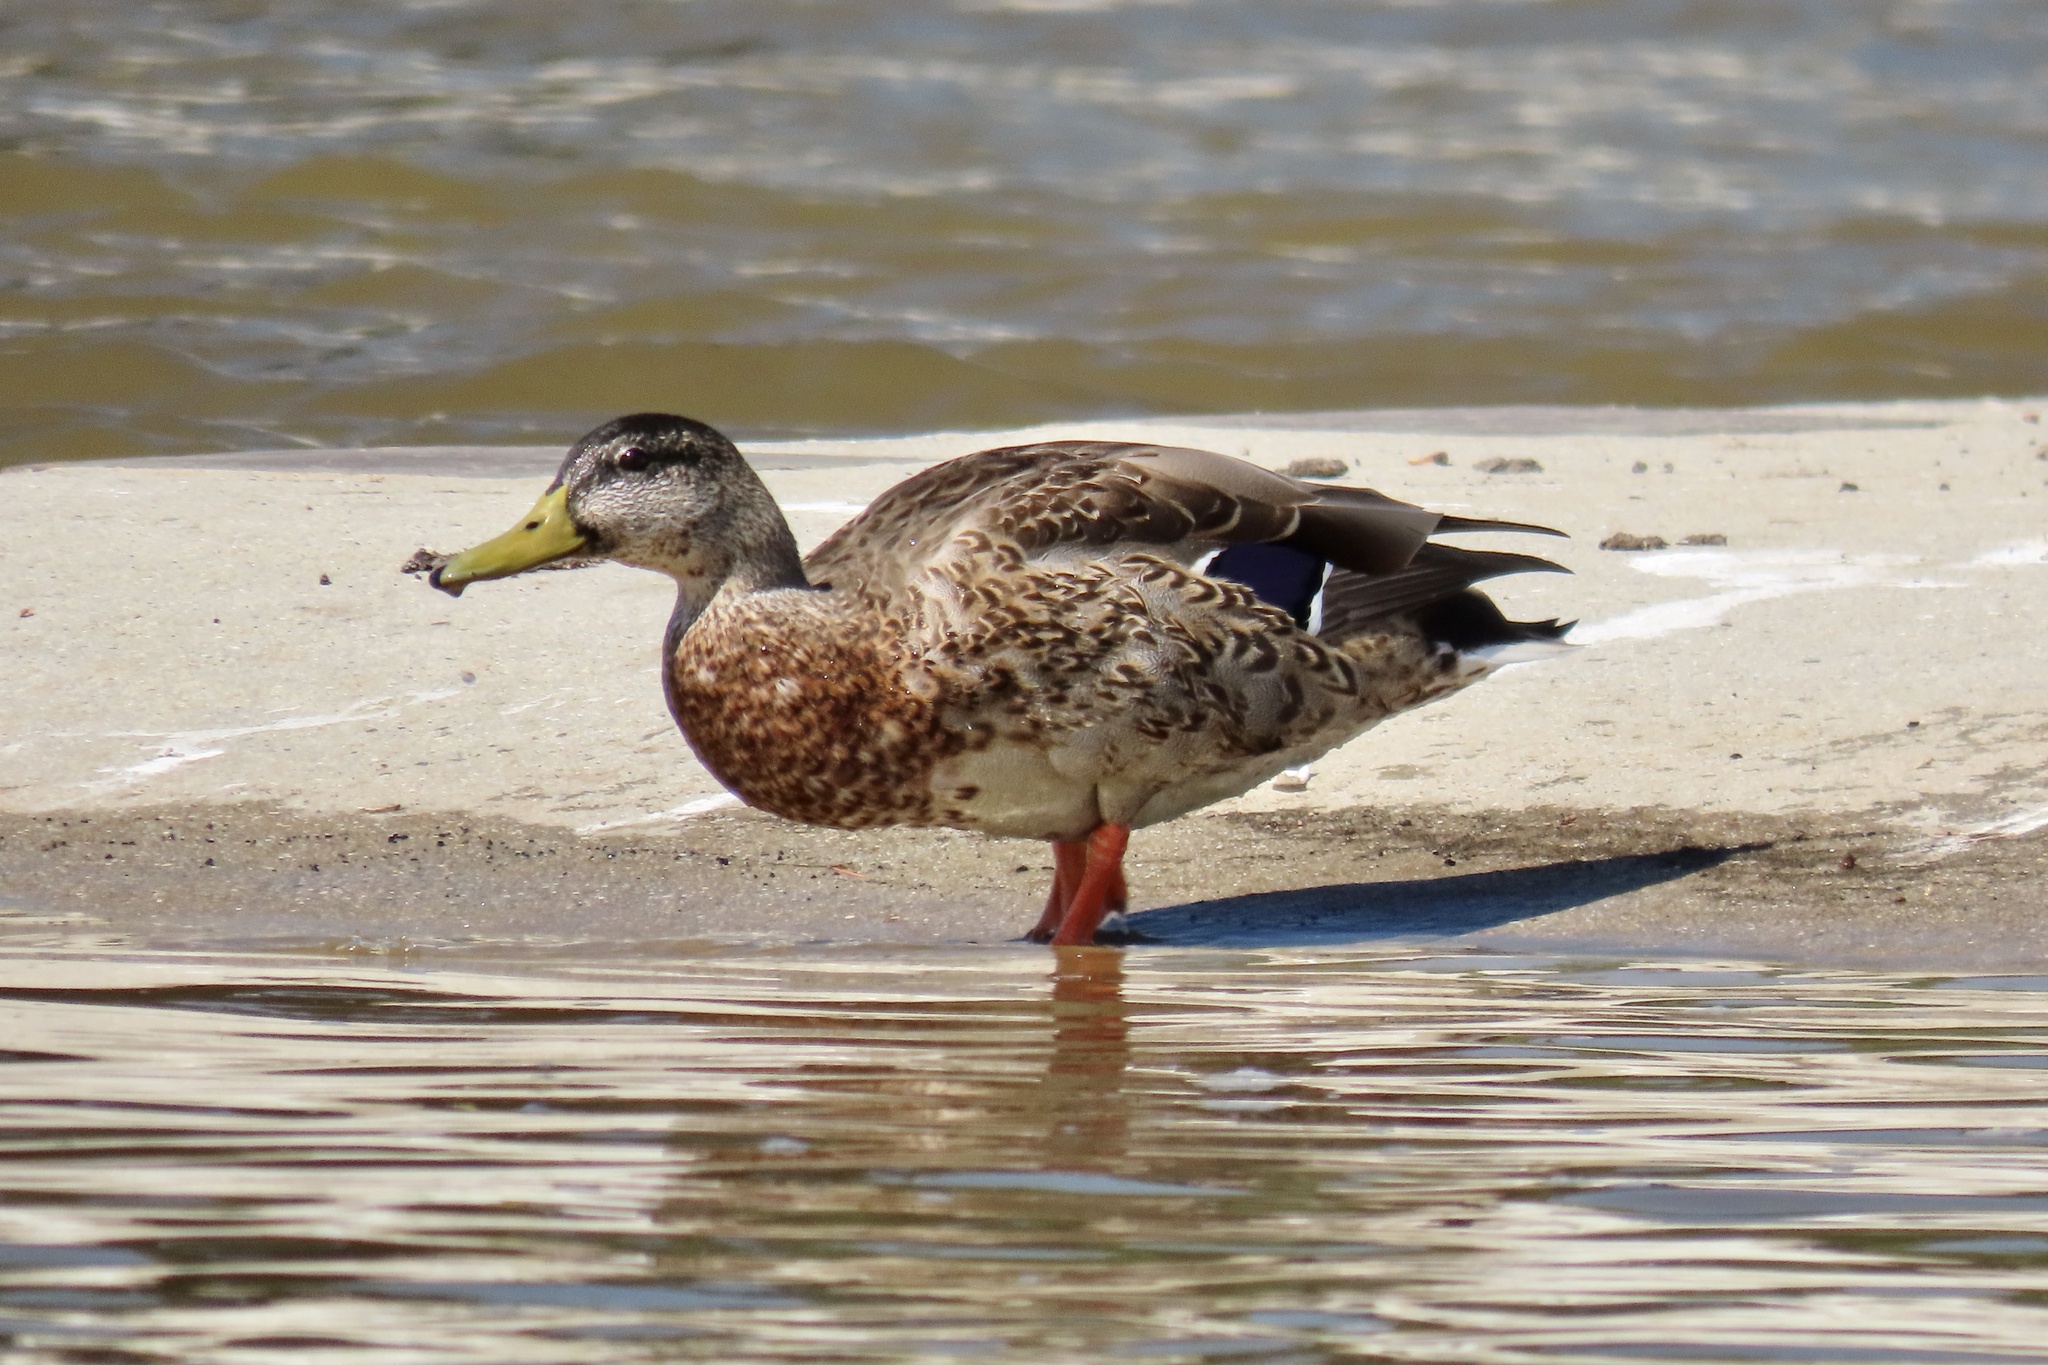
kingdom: Animalia
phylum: Chordata
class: Aves
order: Anseriformes
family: Anatidae
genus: Anas
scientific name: Anas platyrhynchos
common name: Mallard
